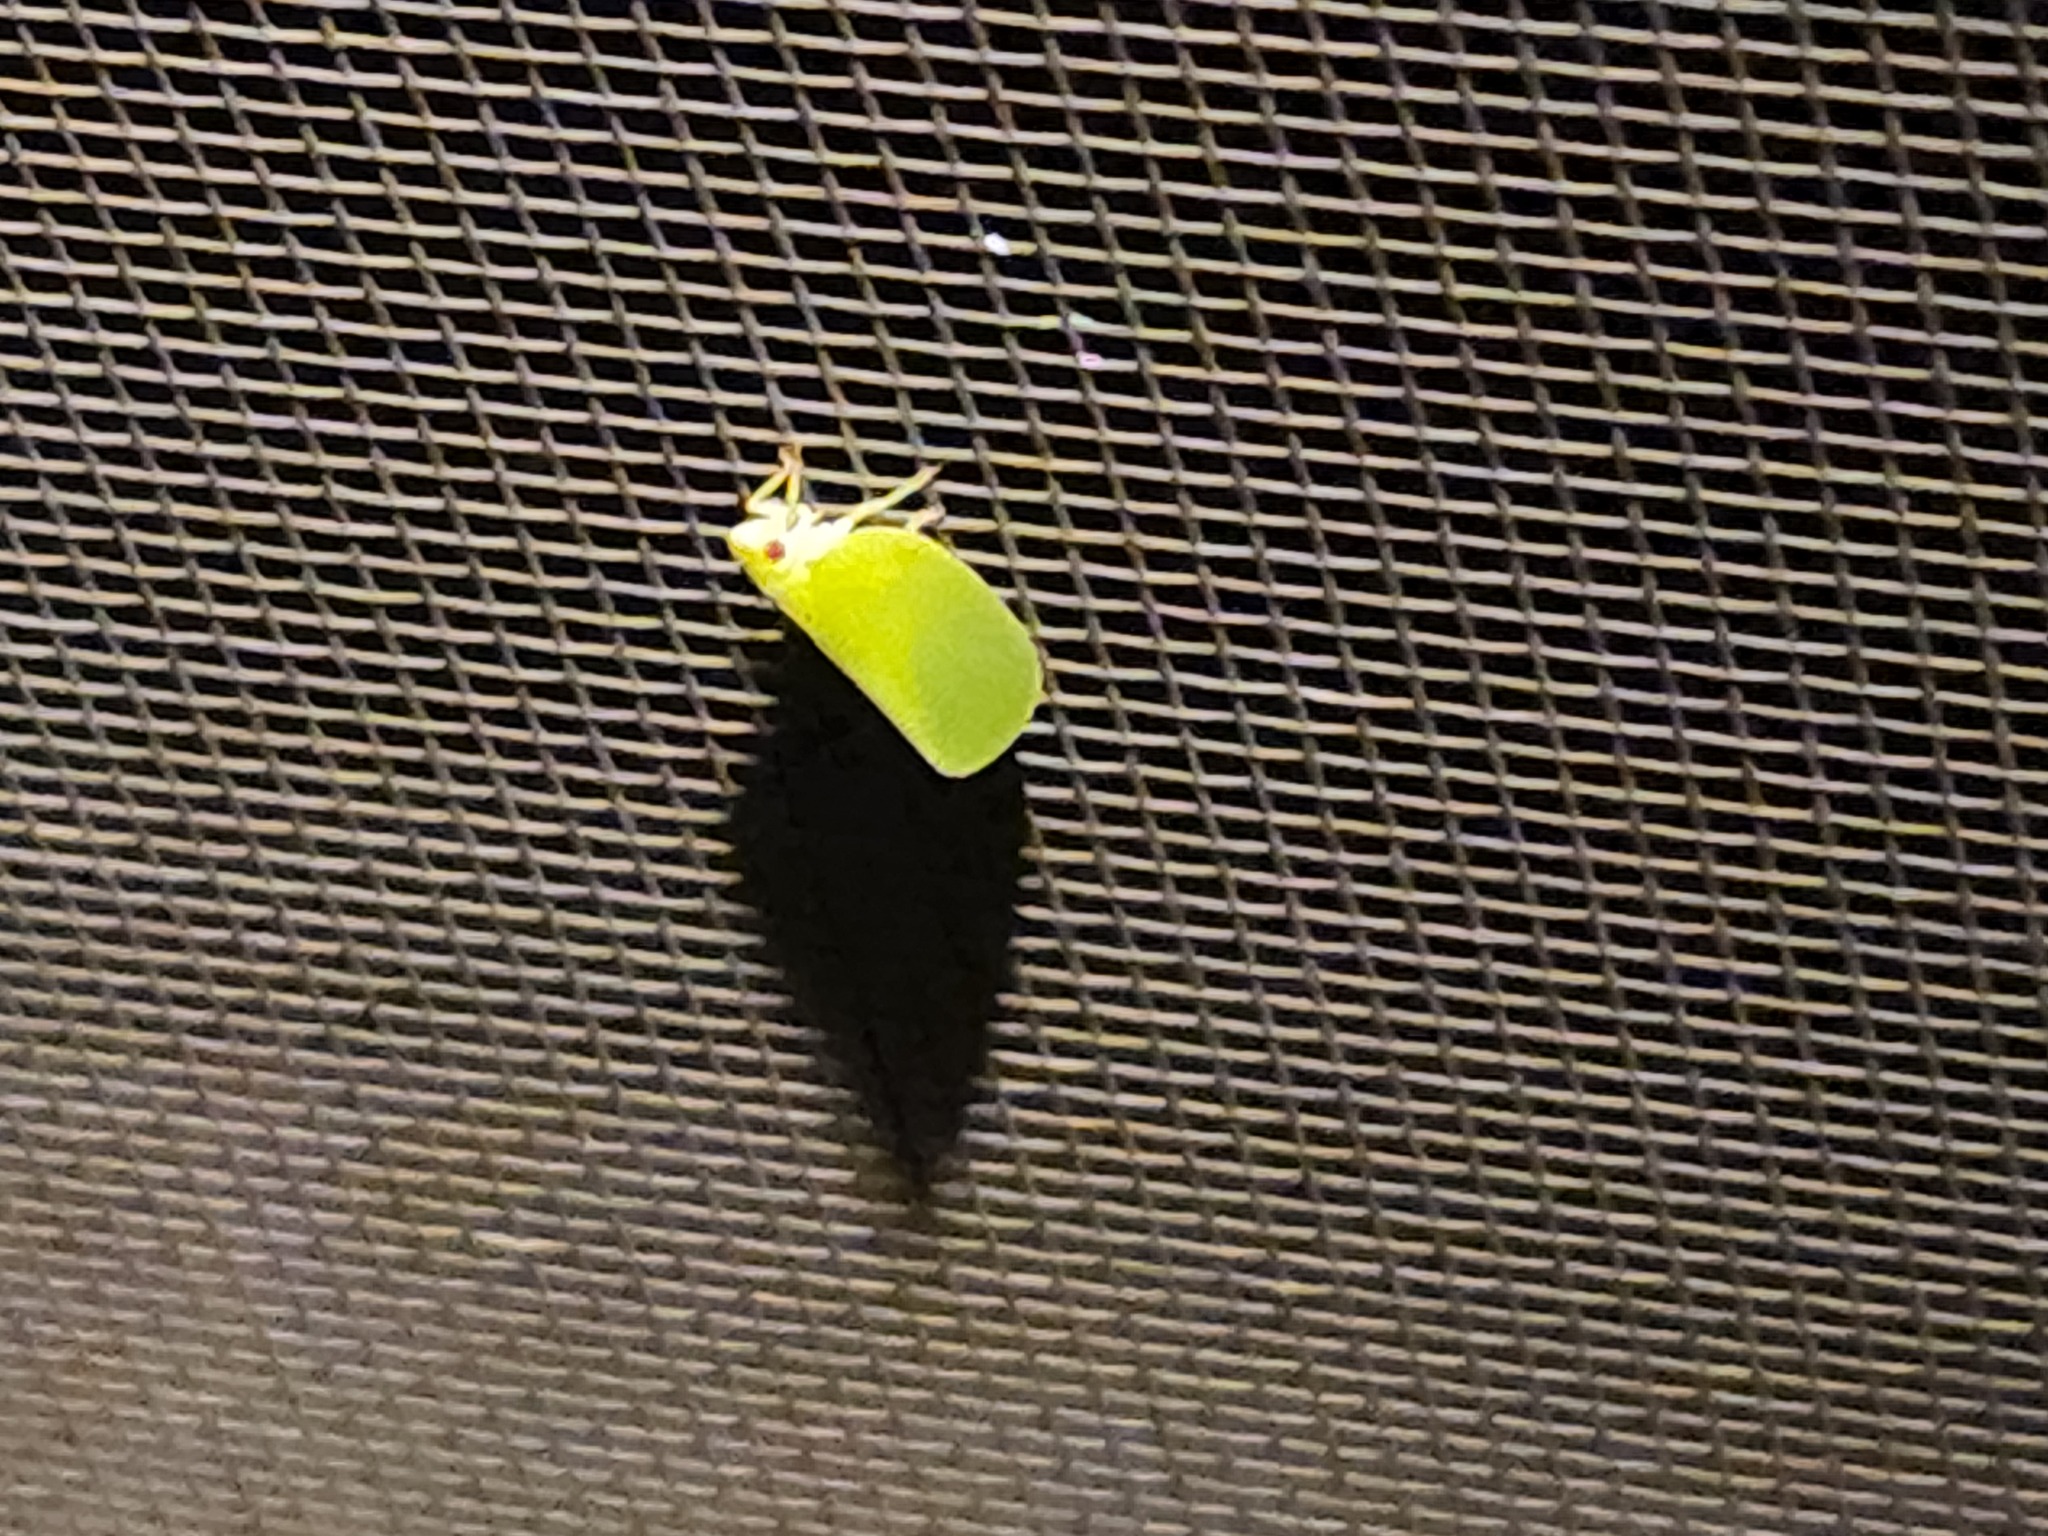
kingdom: Animalia
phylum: Arthropoda
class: Insecta
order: Hemiptera
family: Acanaloniidae
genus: Acanalonia
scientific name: Acanalonia conica
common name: Green cone-headed planthopper
